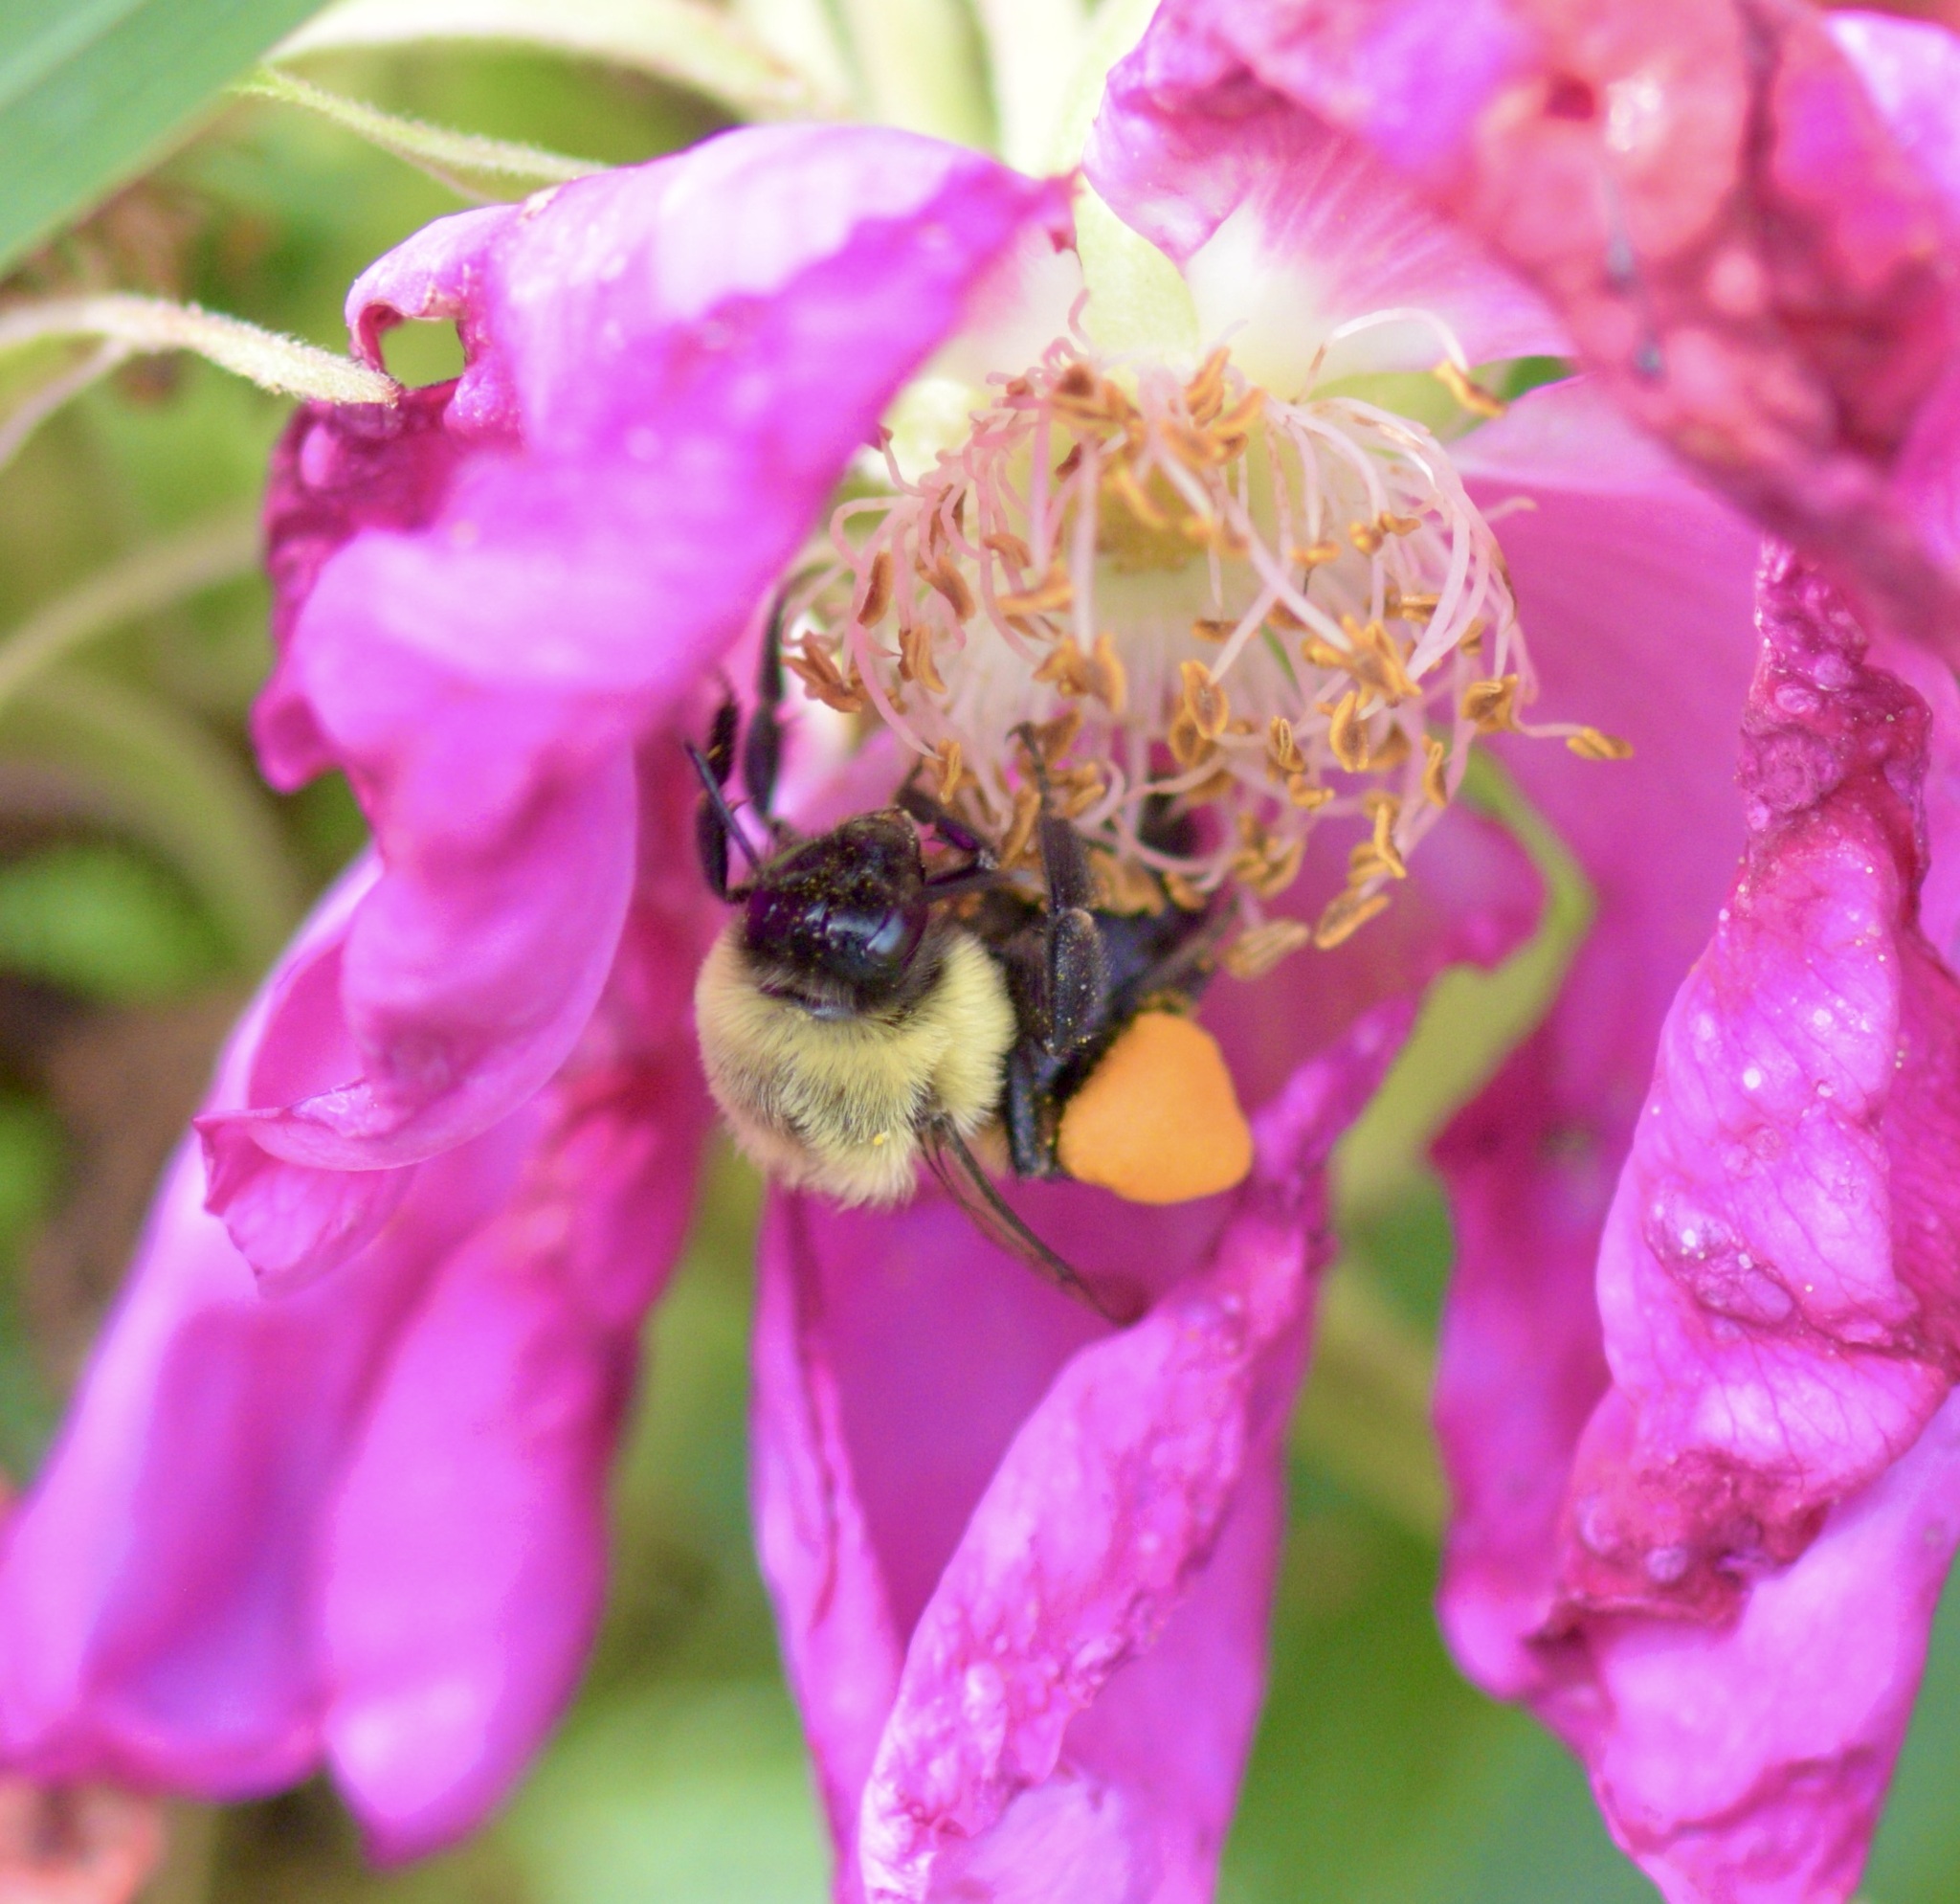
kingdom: Animalia
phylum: Arthropoda
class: Insecta
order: Hymenoptera
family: Apidae
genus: Bombus
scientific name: Bombus impatiens
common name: Common eastern bumble bee
